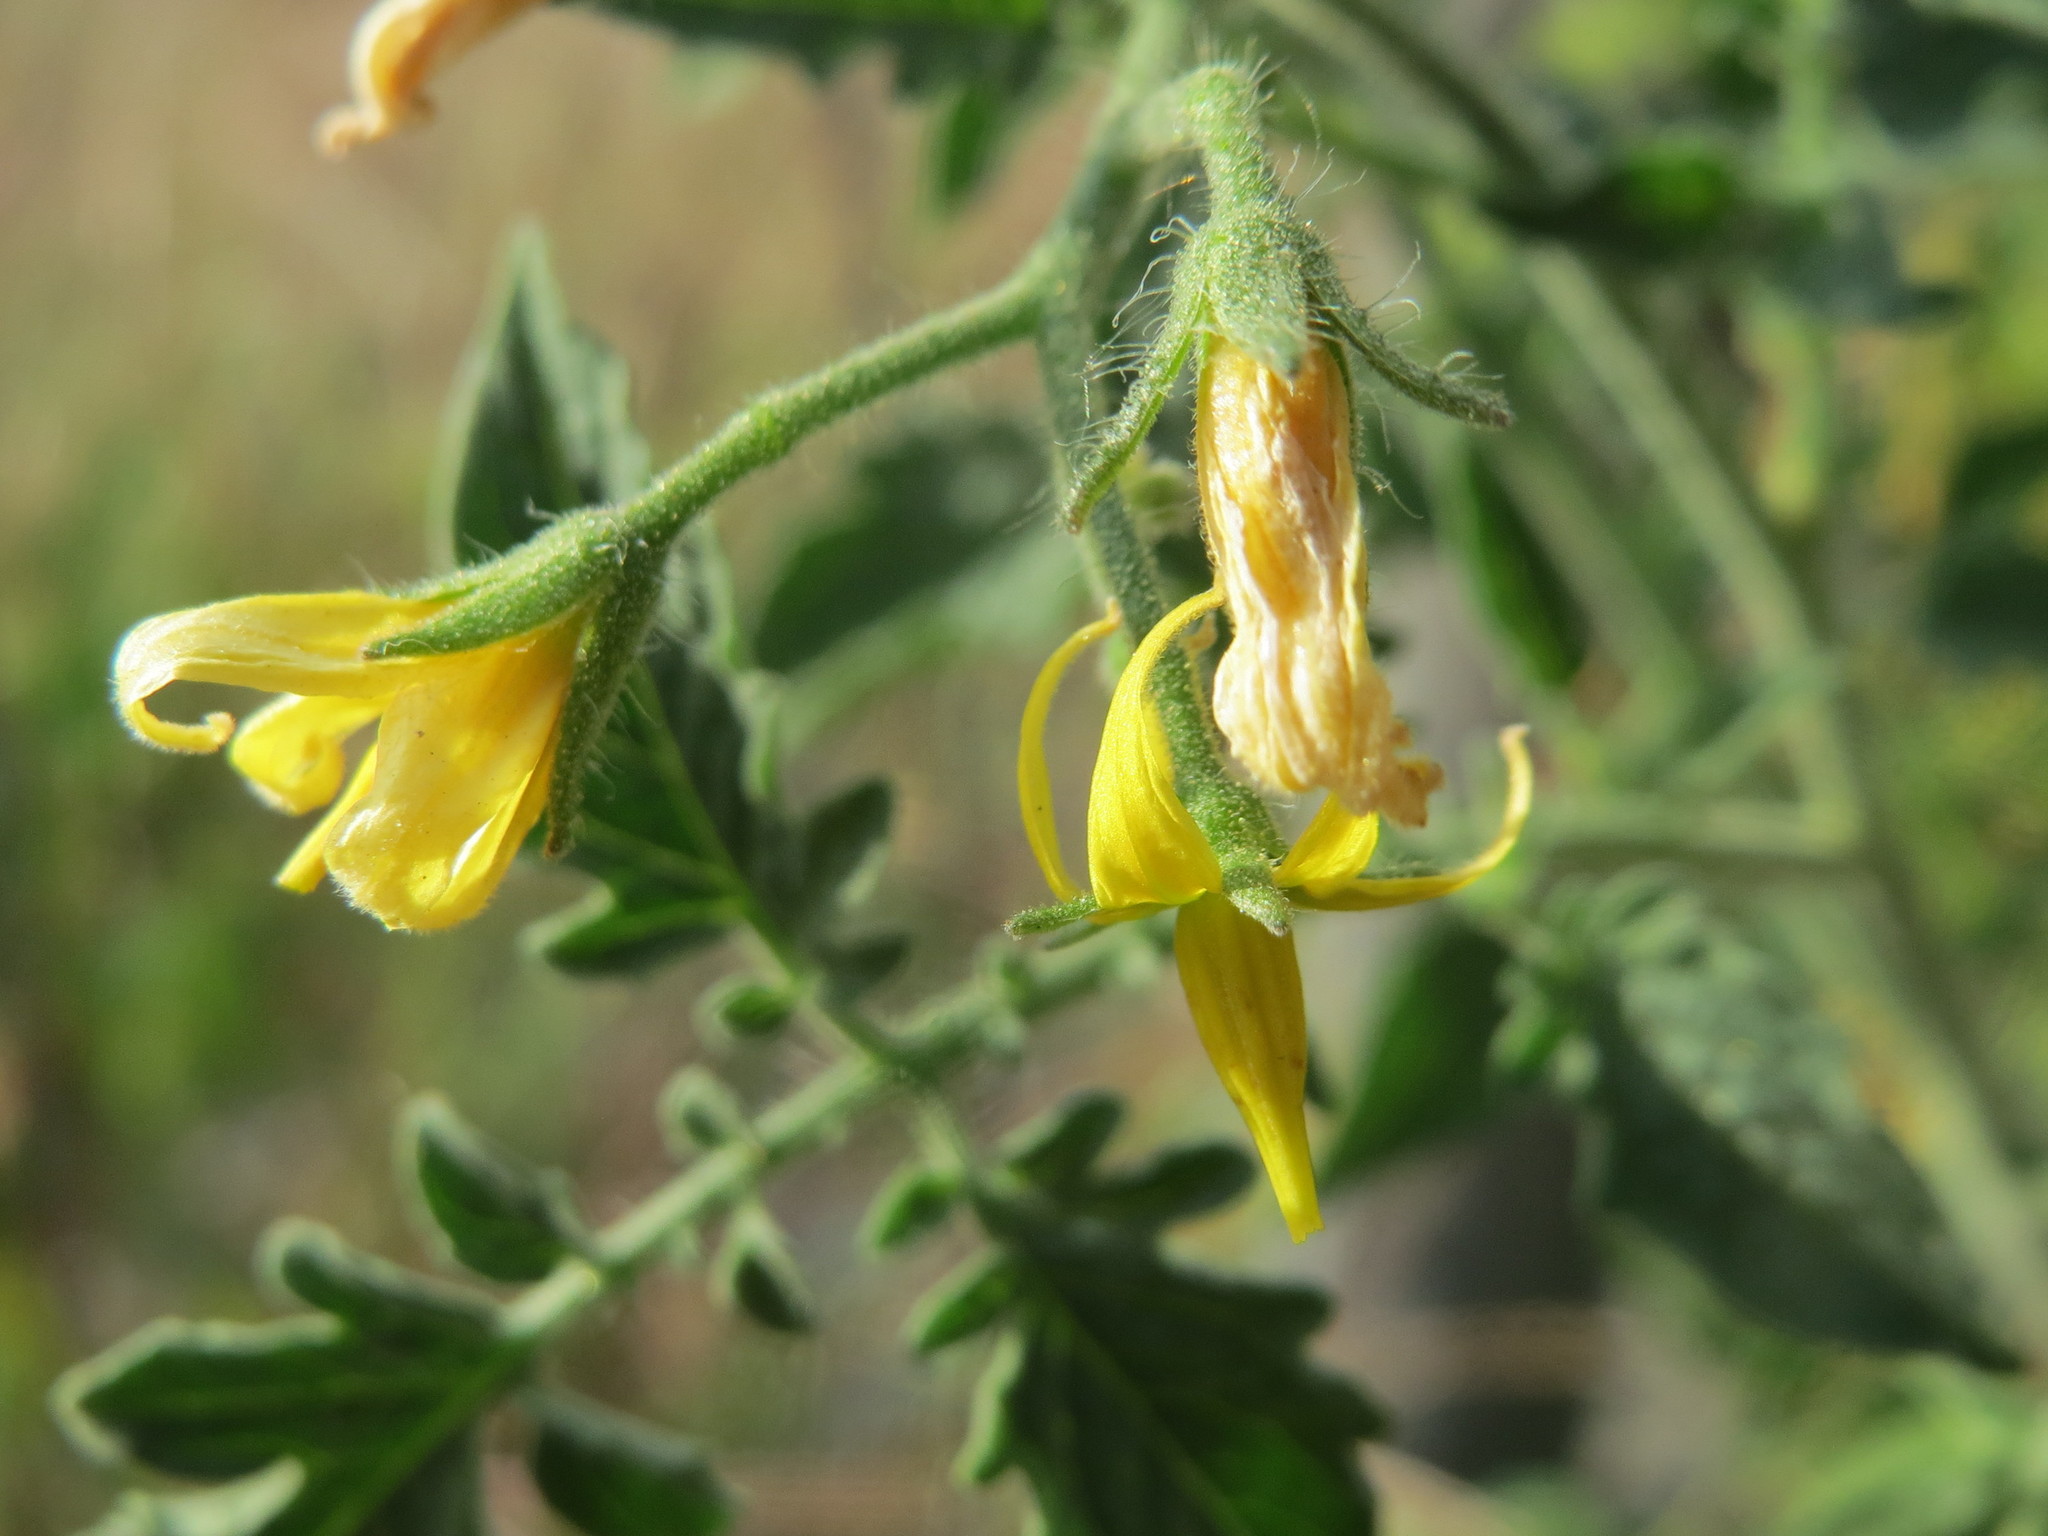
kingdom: Plantae
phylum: Tracheophyta
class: Magnoliopsida
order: Solanales
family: Solanaceae
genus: Solanum
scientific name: Solanum lycopersicum
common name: Garden tomato
